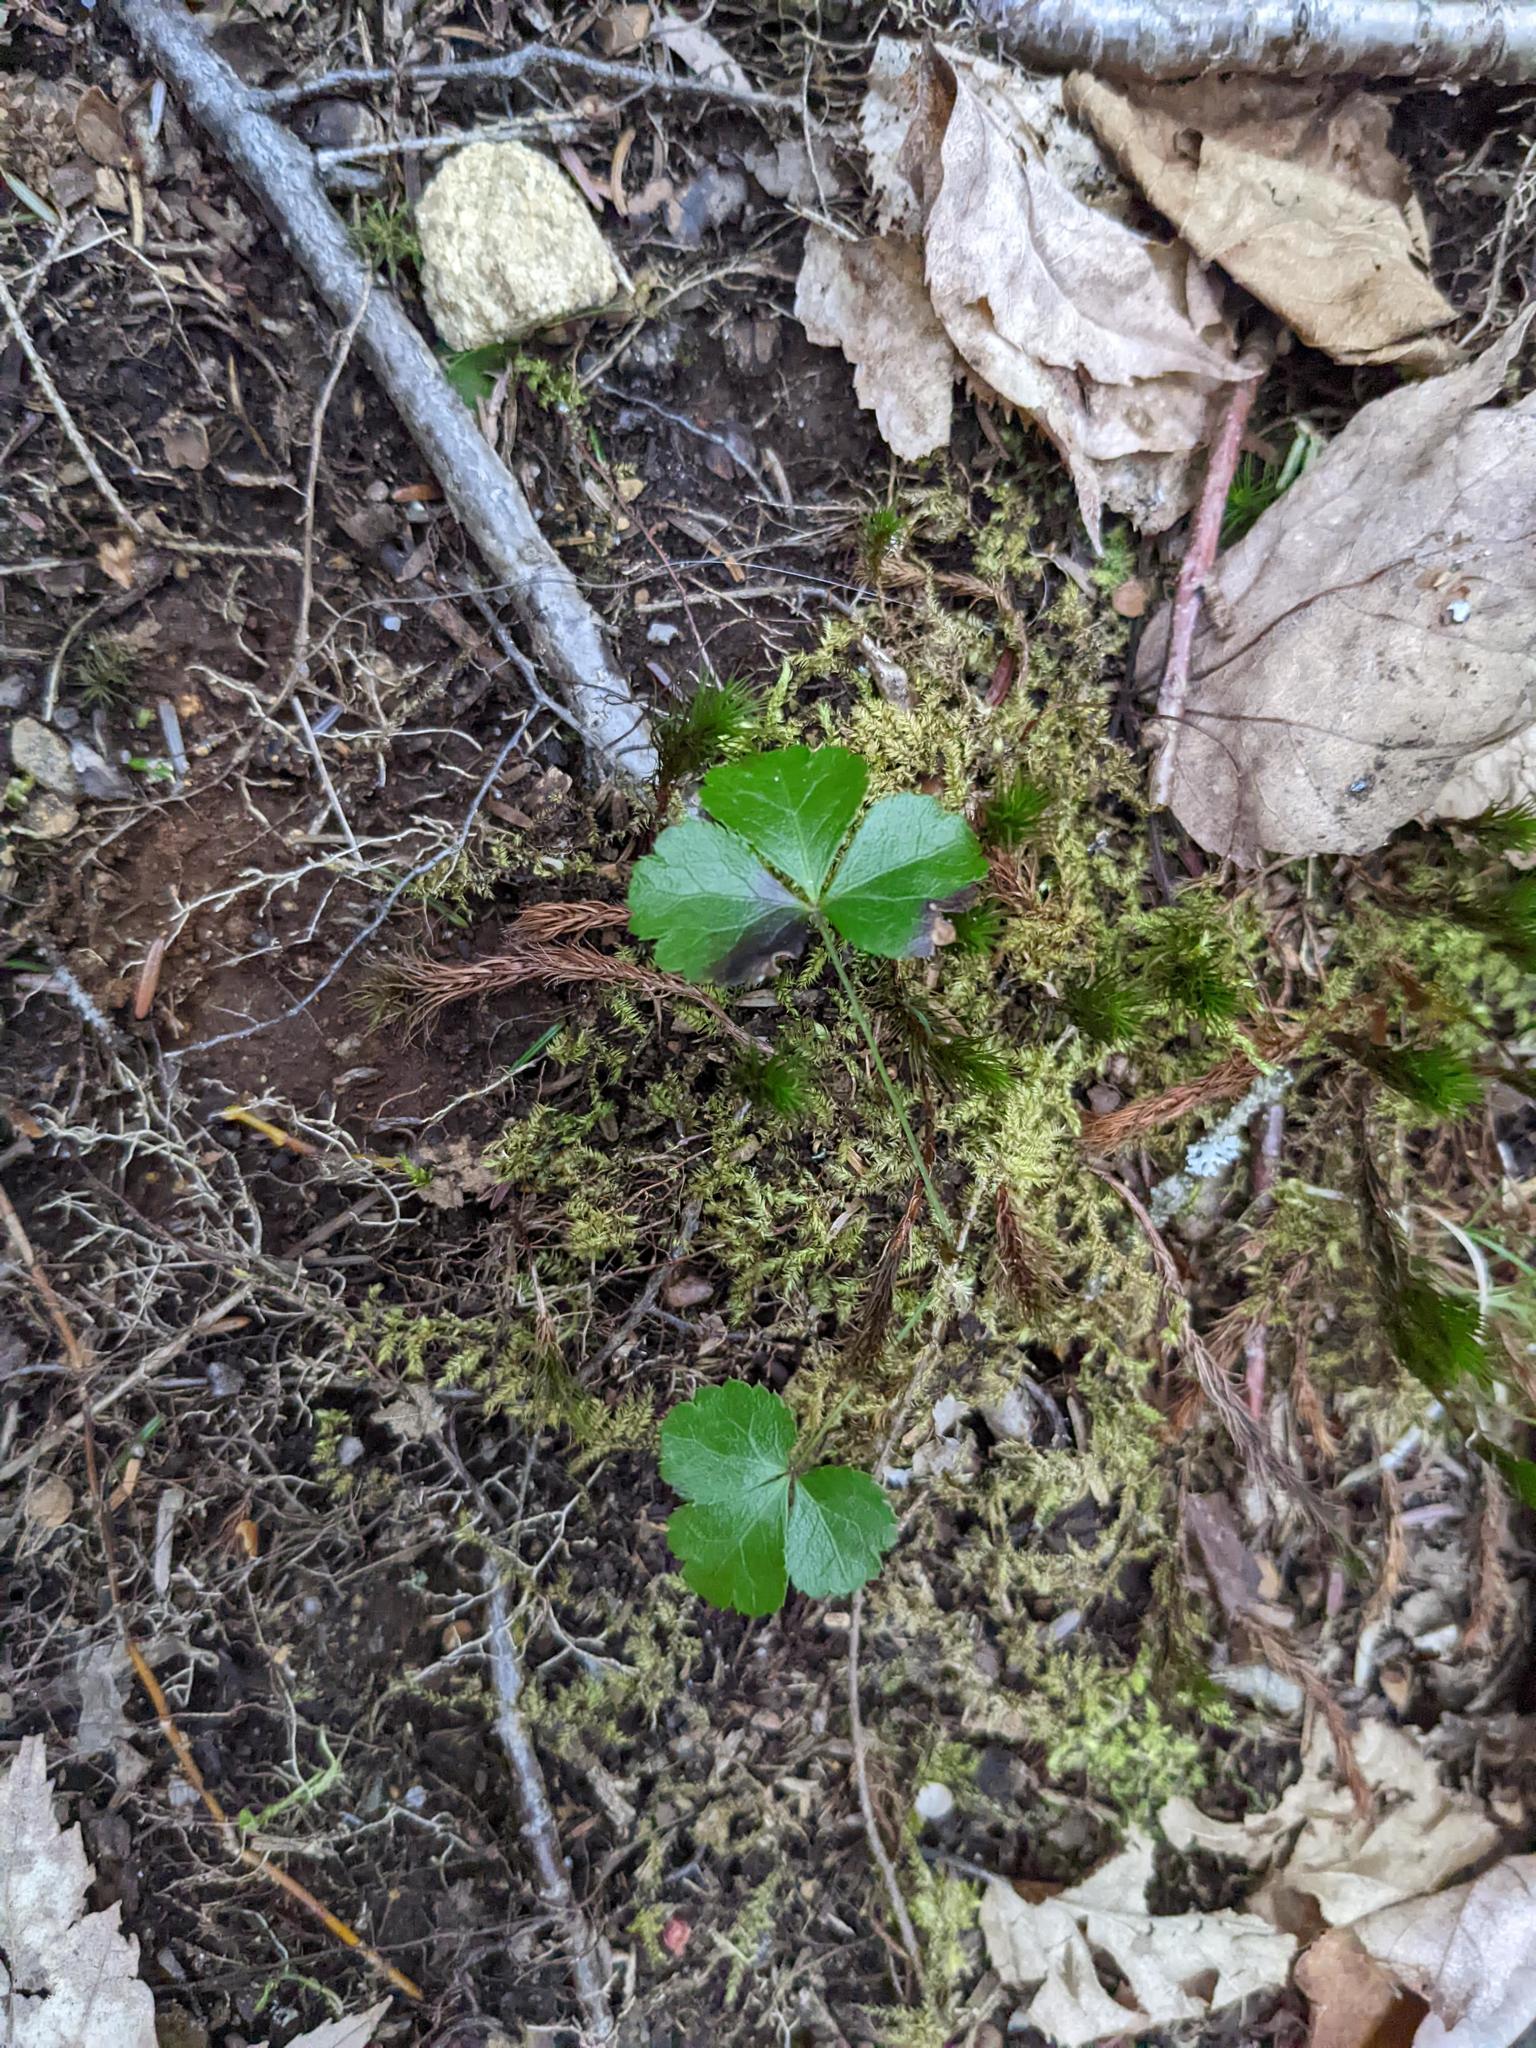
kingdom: Plantae
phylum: Tracheophyta
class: Magnoliopsida
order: Ranunculales
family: Ranunculaceae
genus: Coptis
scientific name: Coptis trifolia
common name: Canker-root
